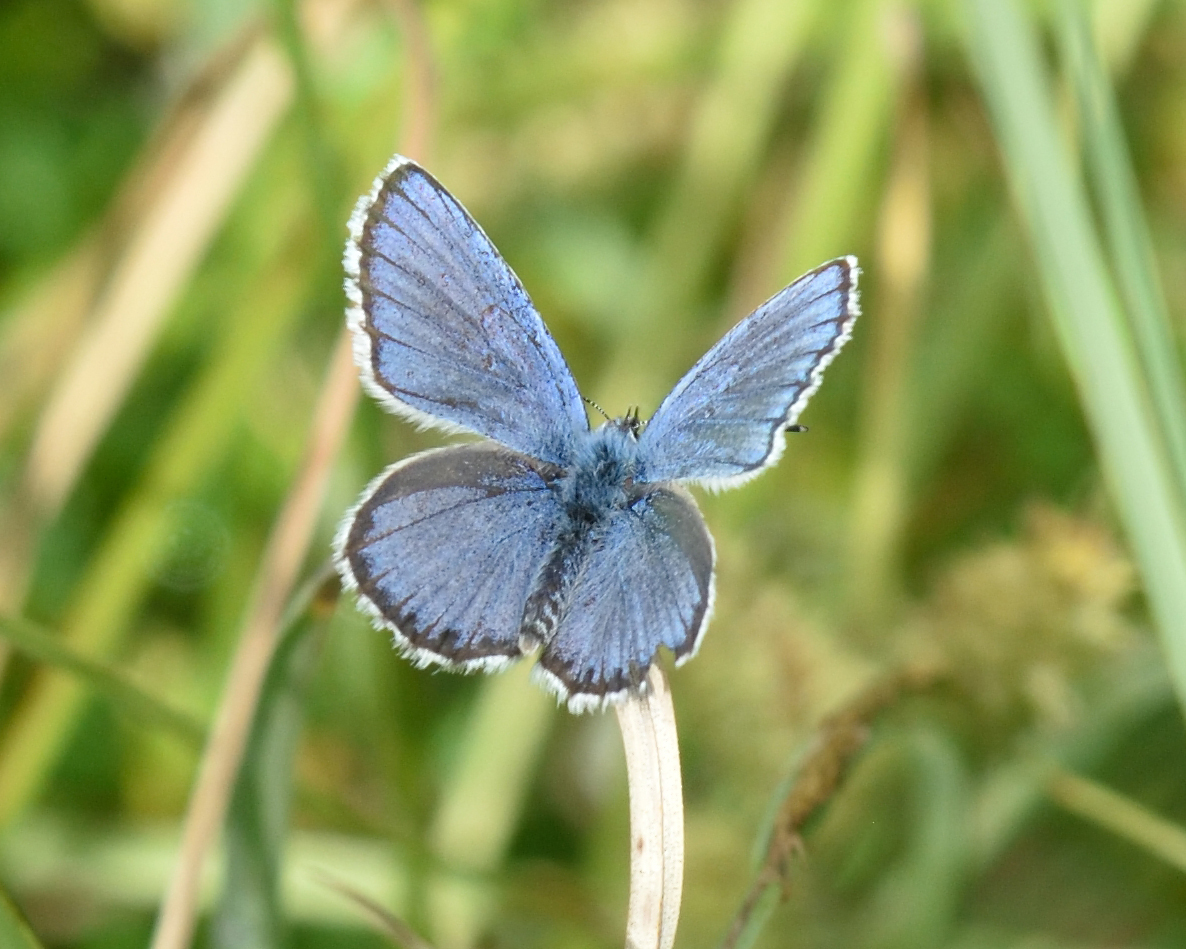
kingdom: Animalia
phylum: Arthropoda
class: Insecta
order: Lepidoptera
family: Lycaenidae
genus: Lycaeides
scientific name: Lycaeides idas
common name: Northern blue
